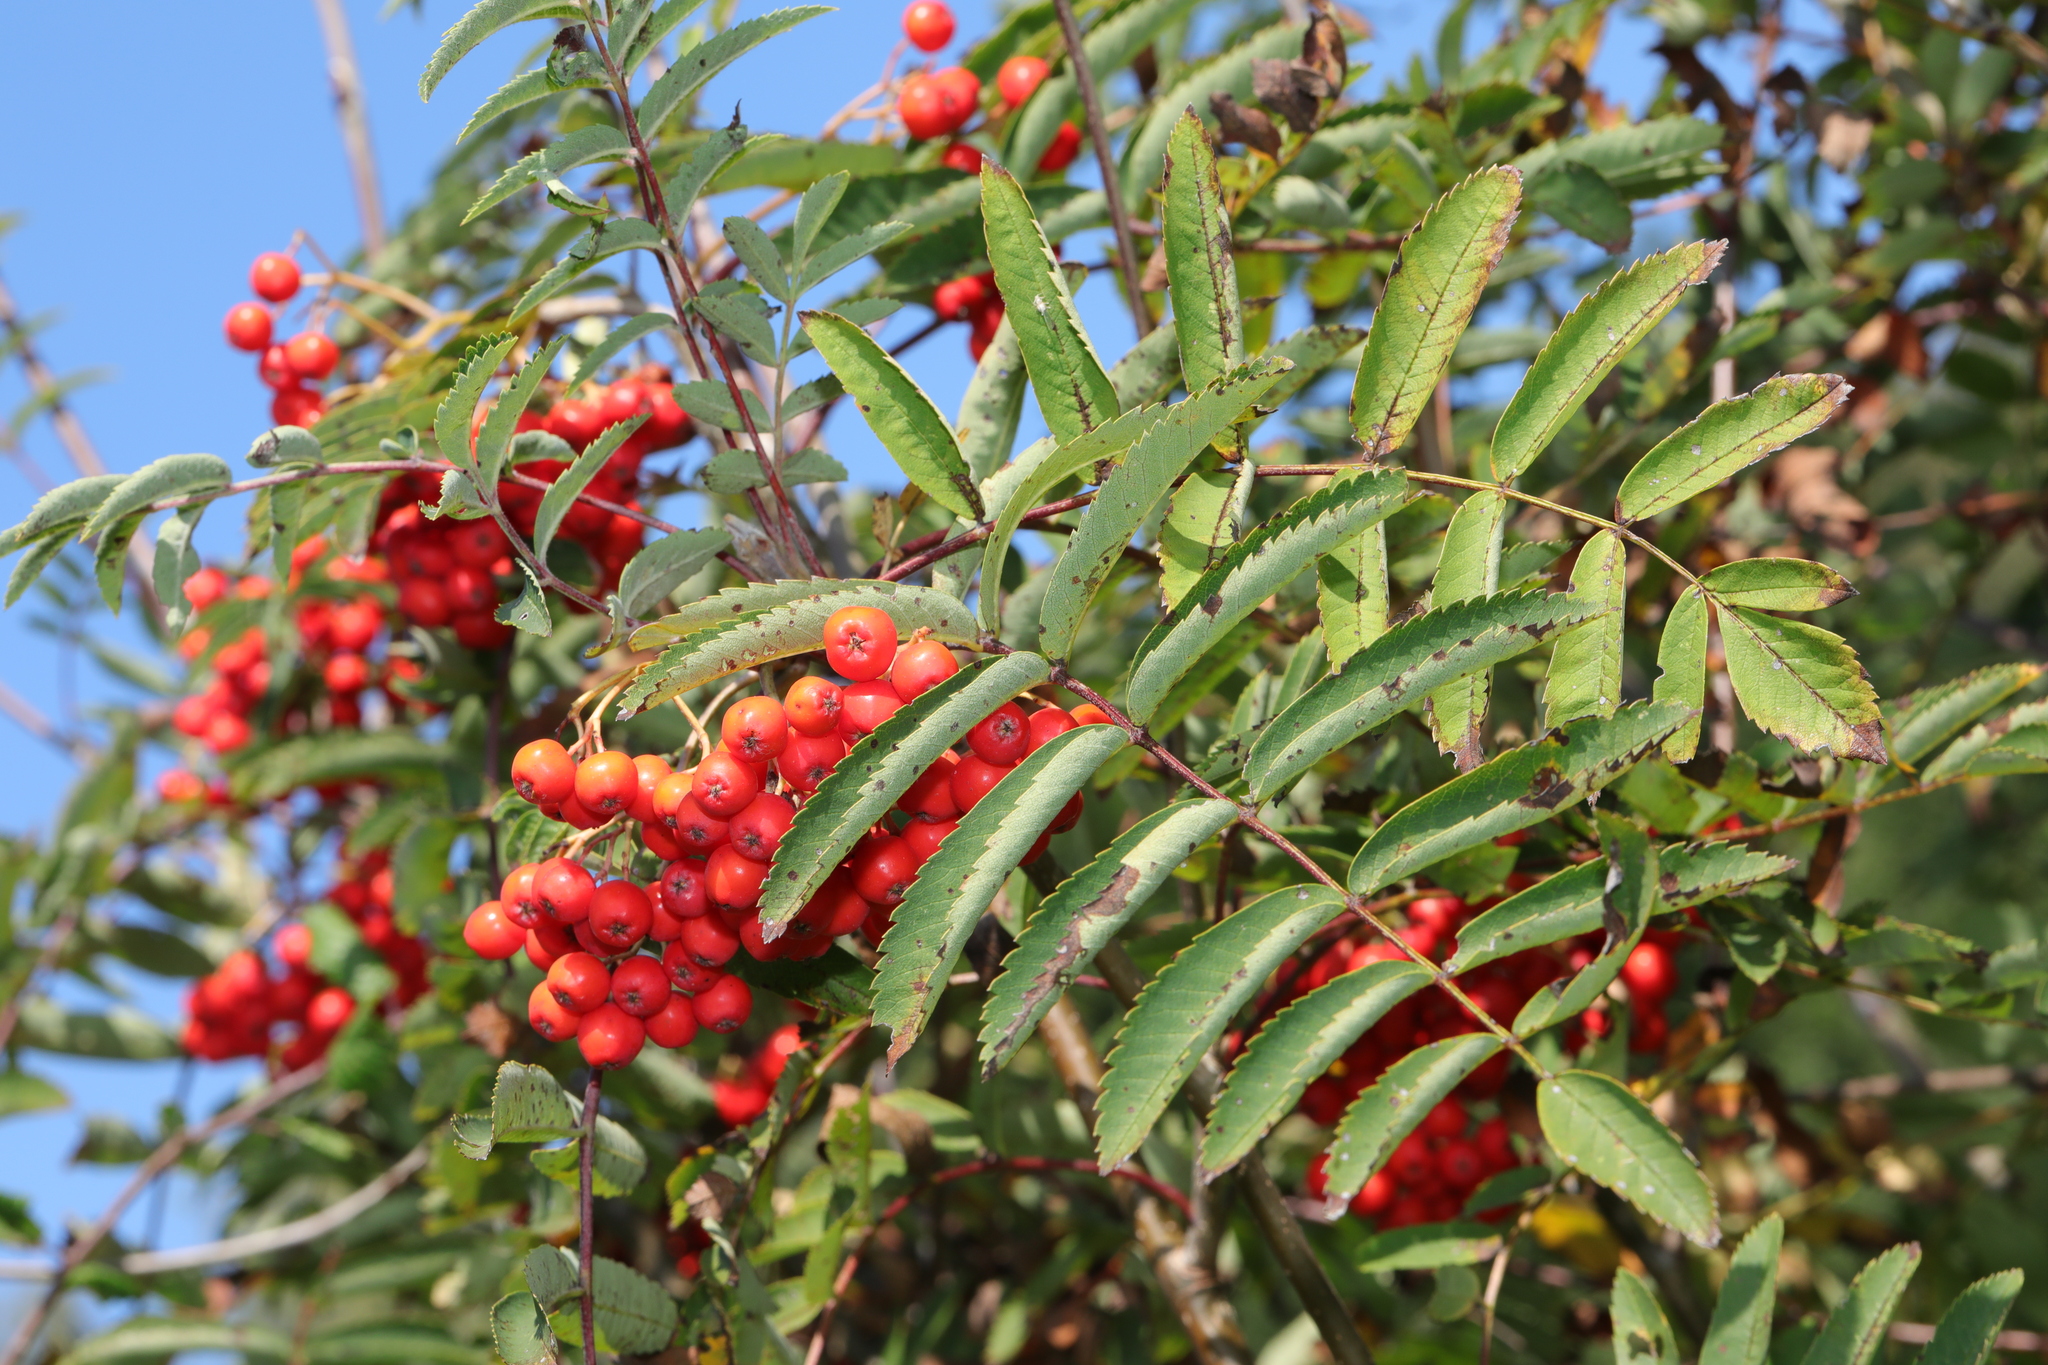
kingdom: Plantae
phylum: Tracheophyta
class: Magnoliopsida
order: Rosales
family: Rosaceae
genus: Sorbus
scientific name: Sorbus aucuparia
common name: Rowan
